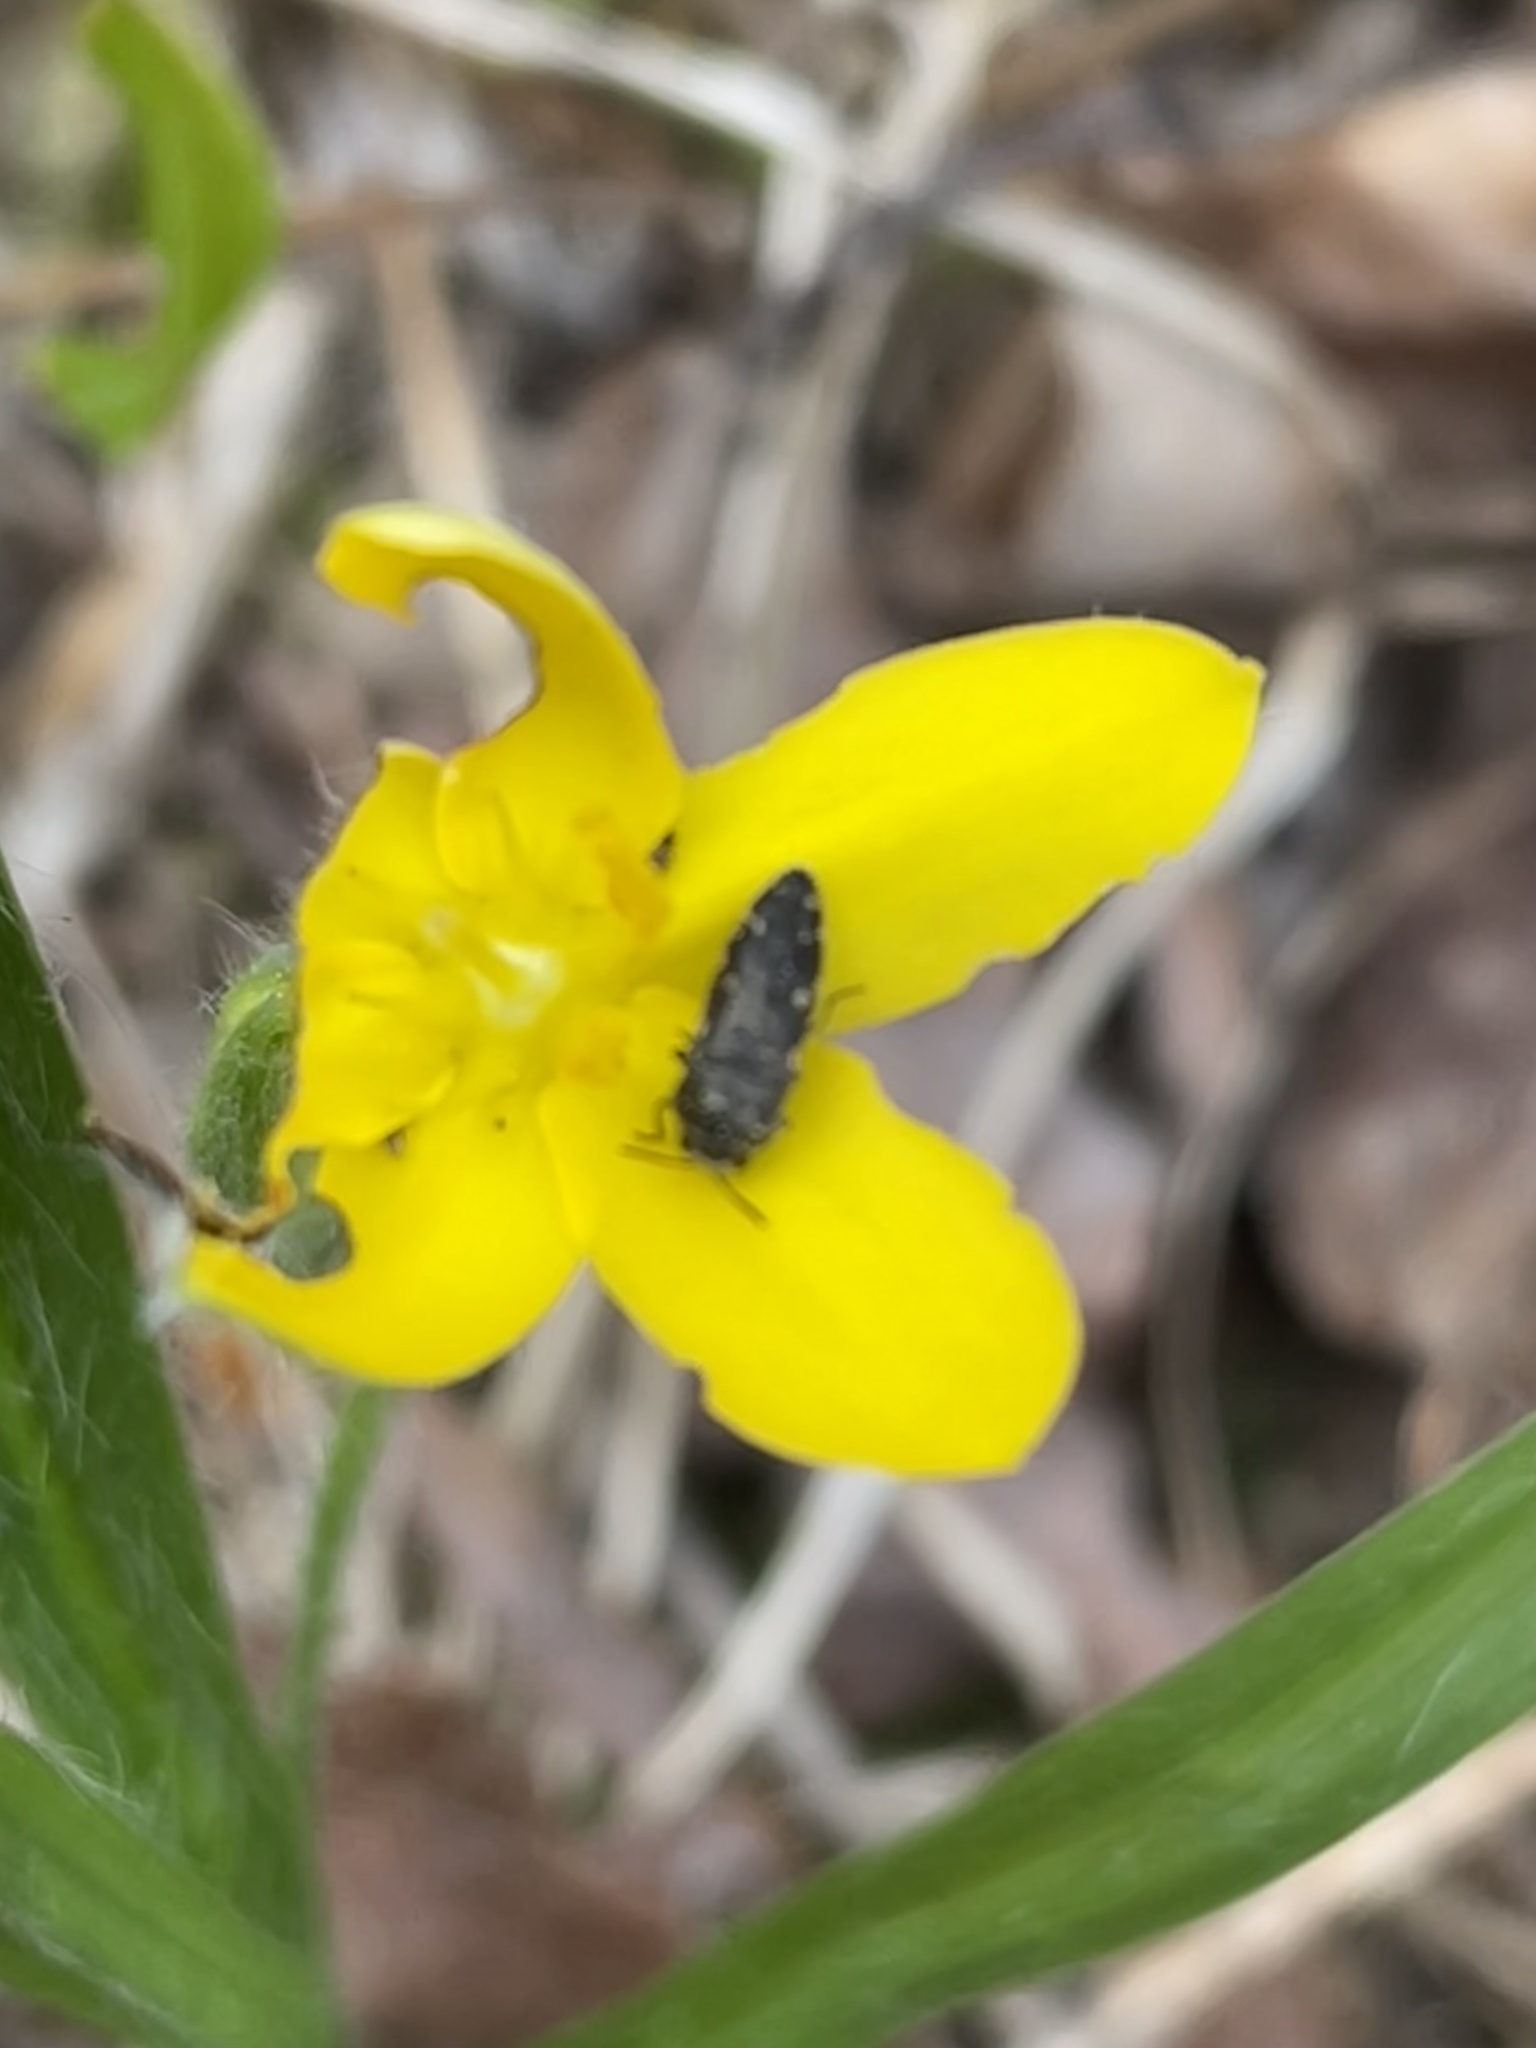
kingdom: Plantae
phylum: Tracheophyta
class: Liliopsida
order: Asparagales
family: Hypoxidaceae
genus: Hypoxis
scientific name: Hypoxis hirsuta
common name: Common goldstar
